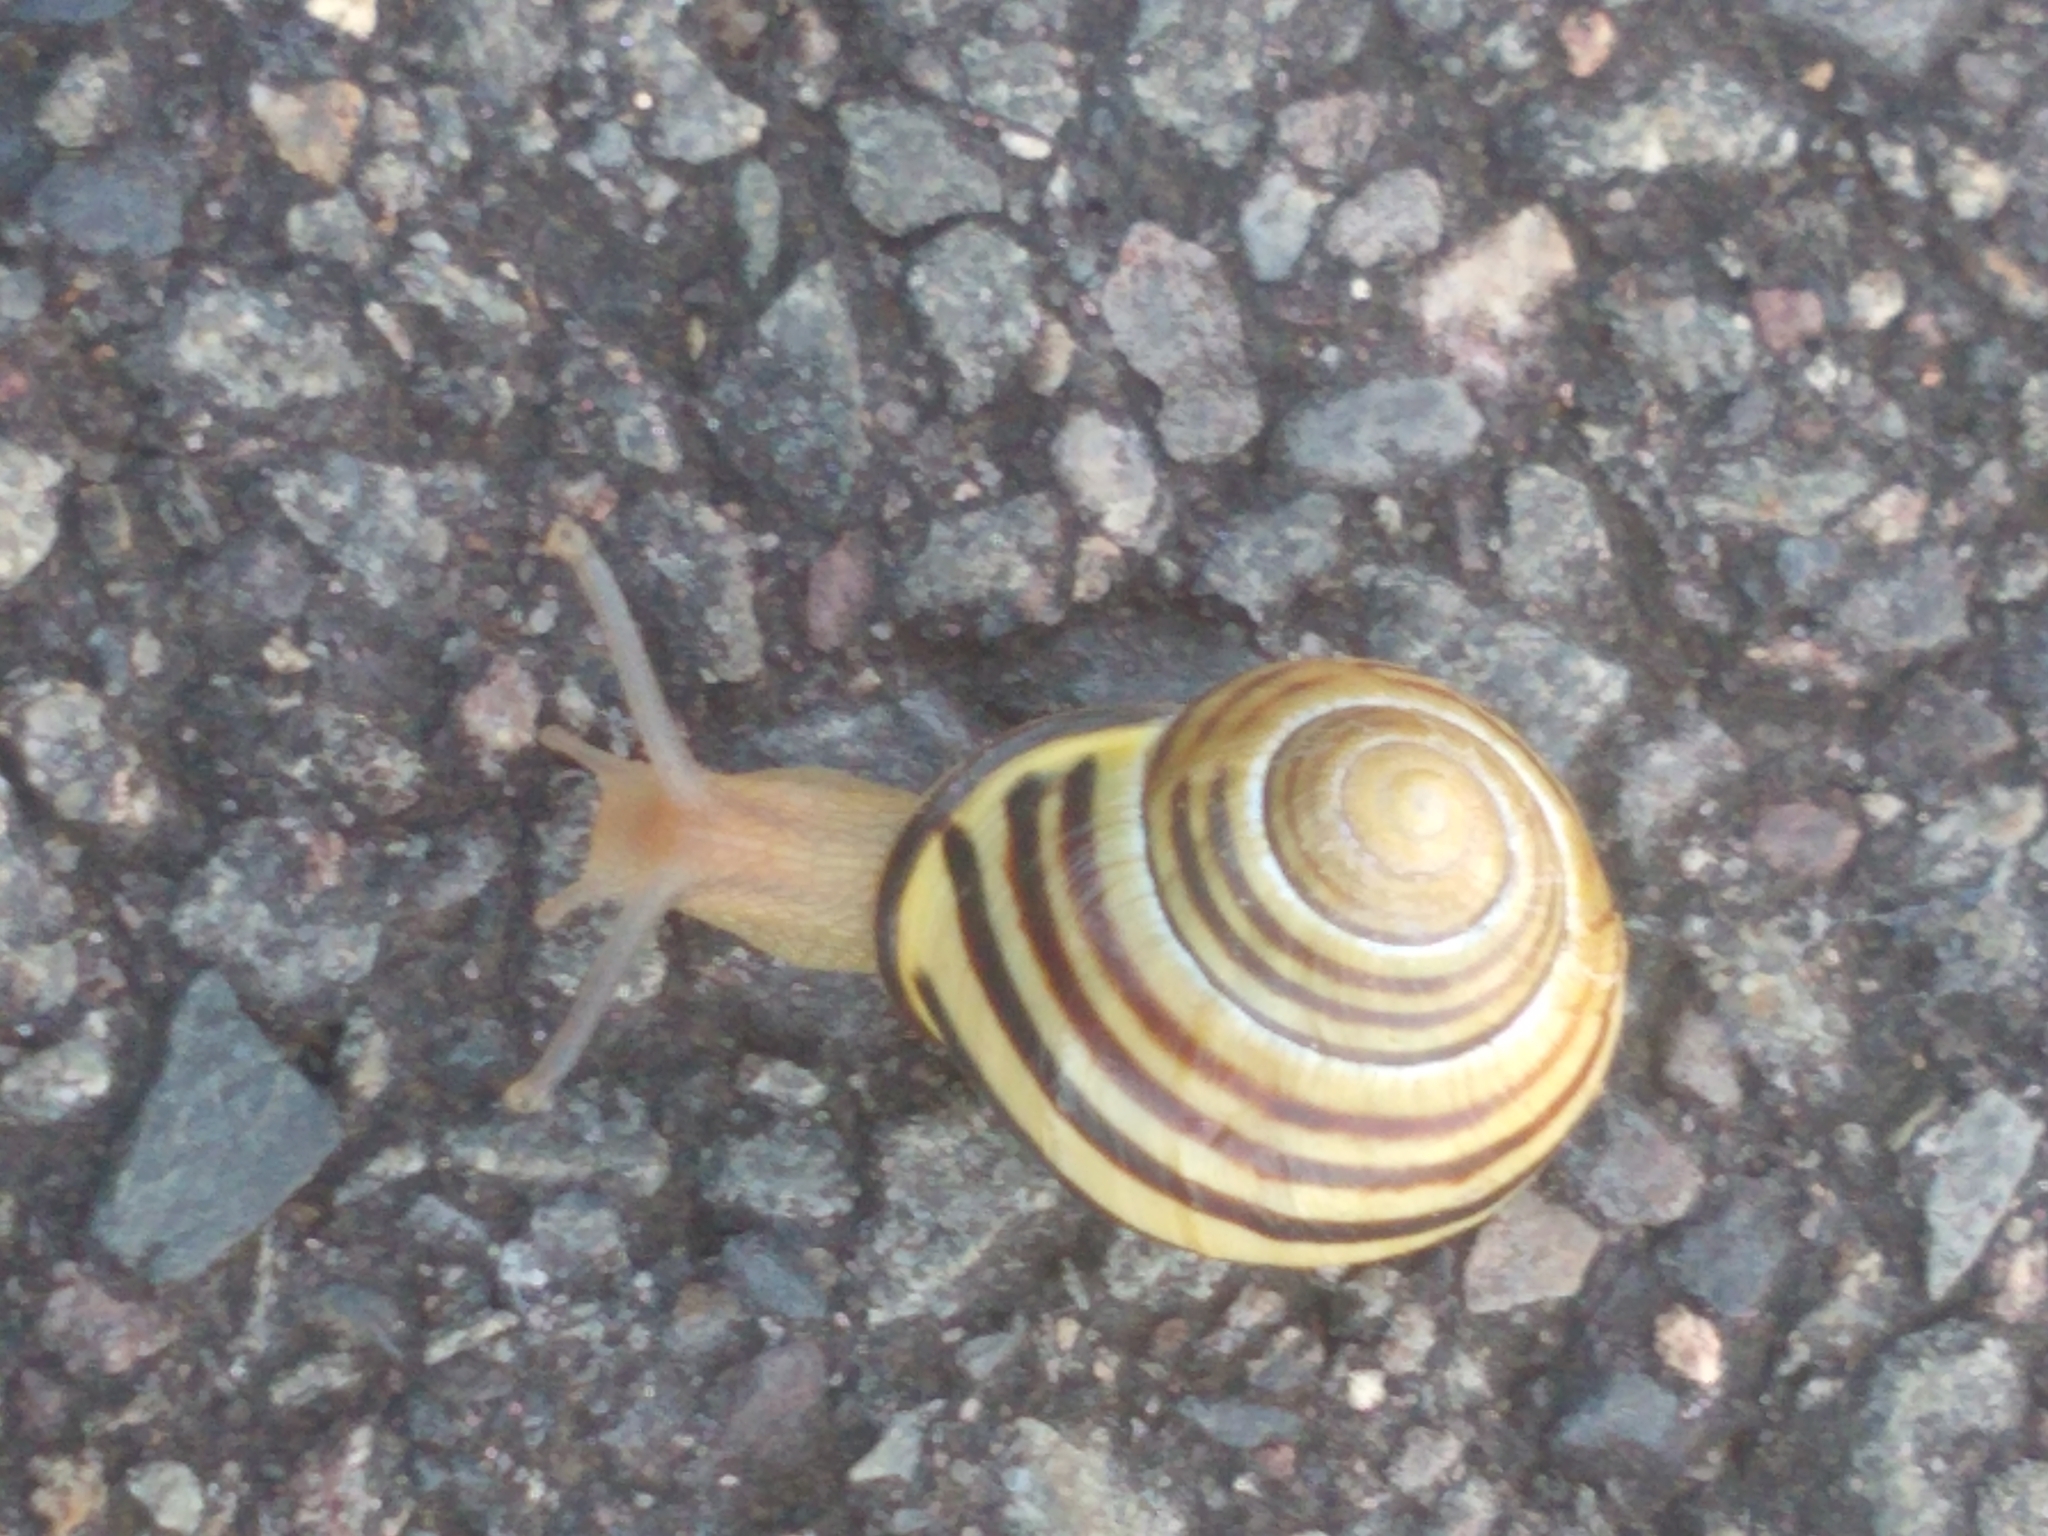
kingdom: Animalia
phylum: Mollusca
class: Gastropoda
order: Stylommatophora
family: Helicidae
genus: Cepaea
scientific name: Cepaea nemoralis
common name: Grovesnail
